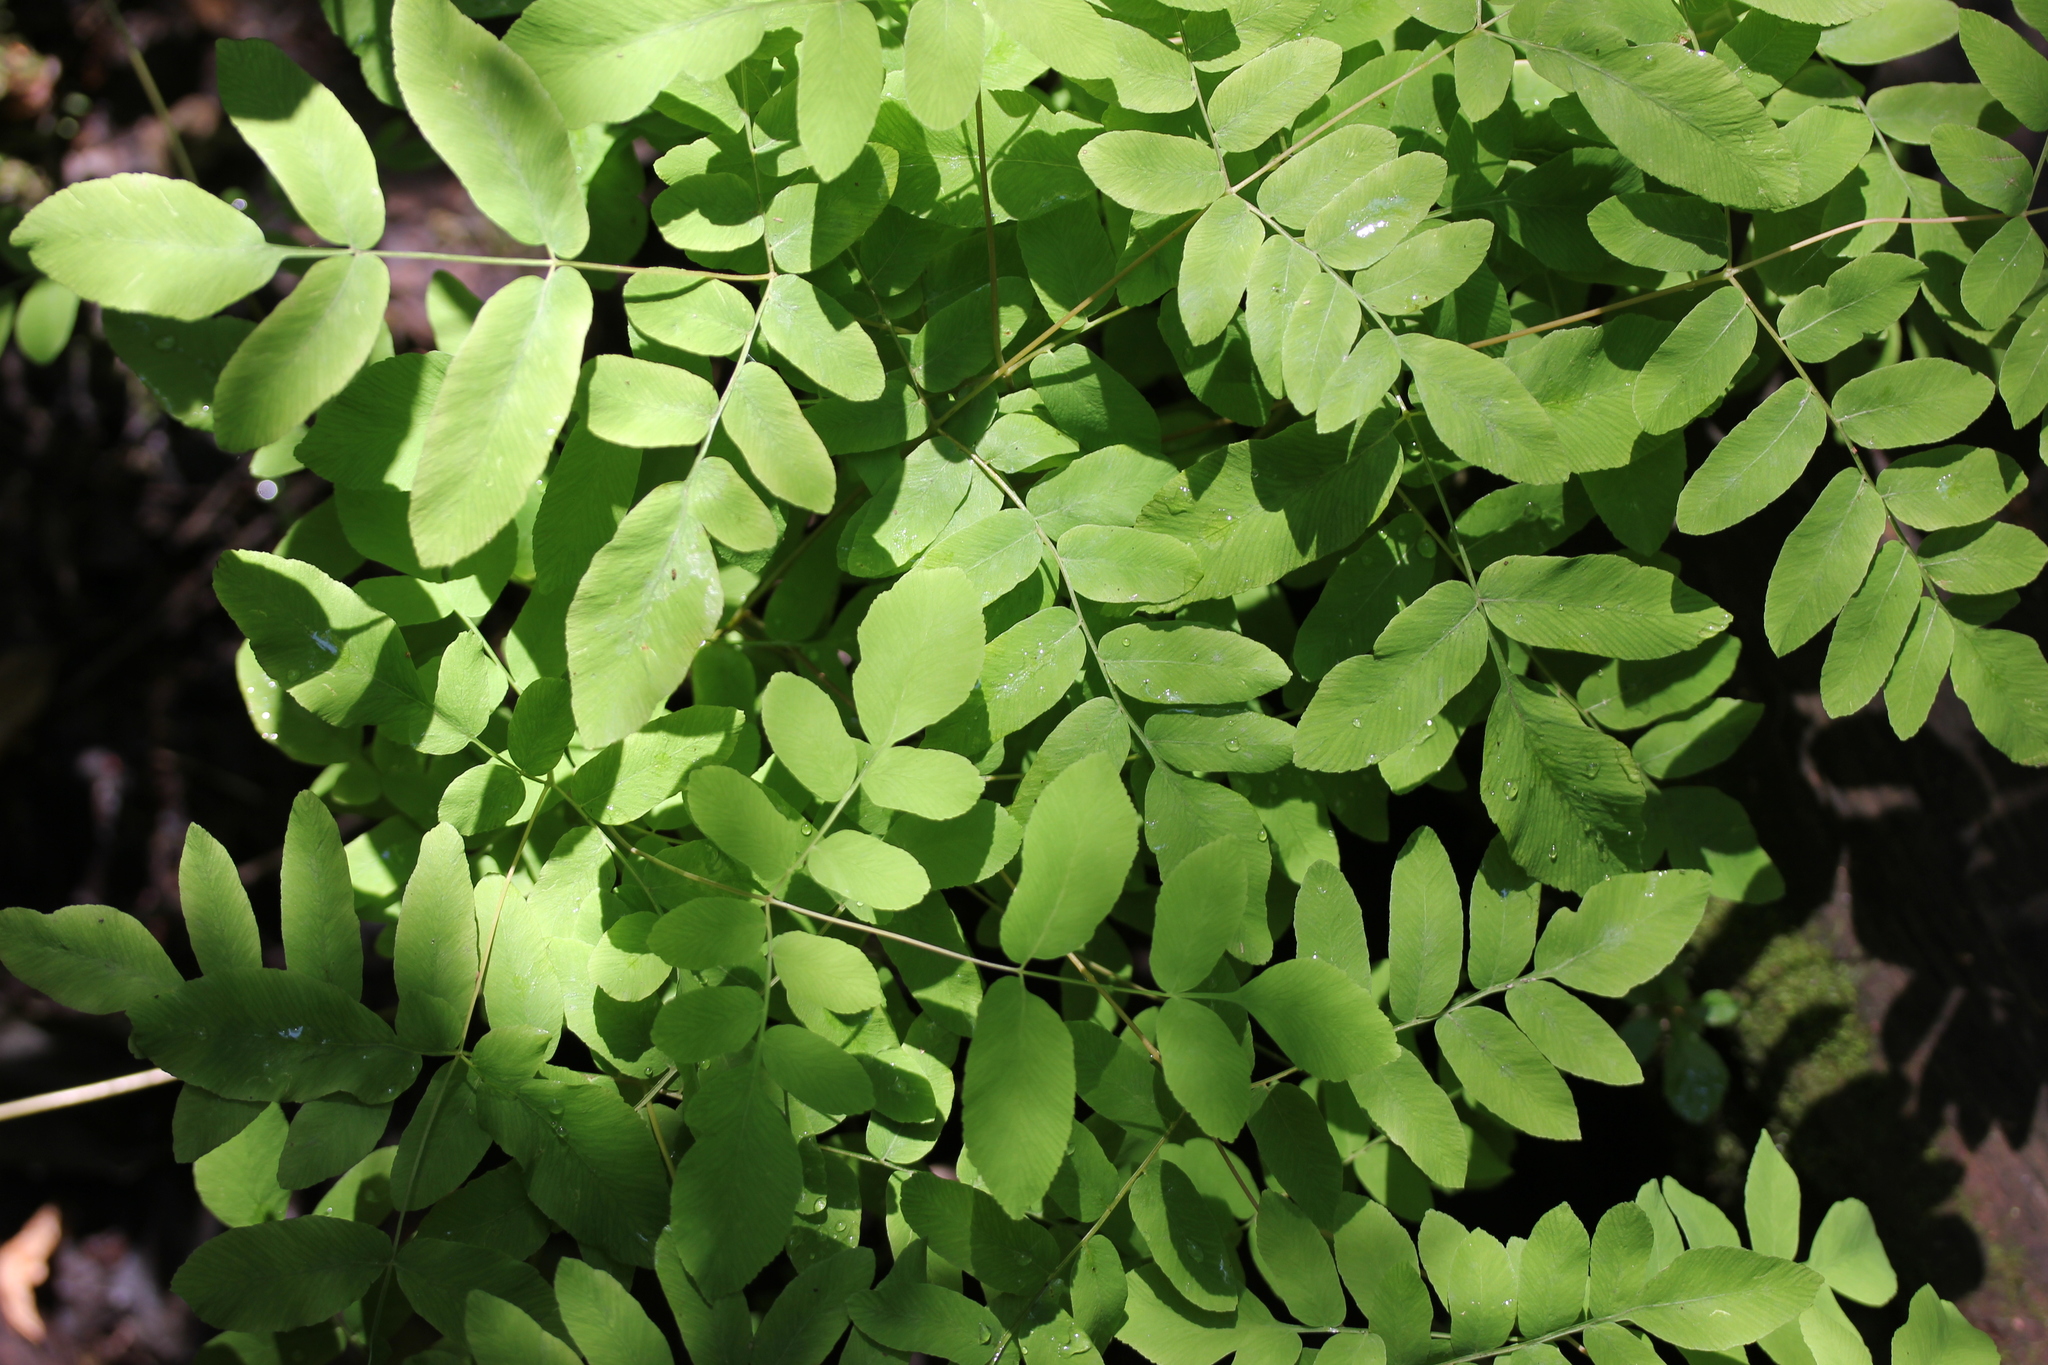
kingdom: Plantae
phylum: Tracheophyta
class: Polypodiopsida
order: Osmundales
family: Osmundaceae
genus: Osmunda
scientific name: Osmunda spectabilis
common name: American royal fern
